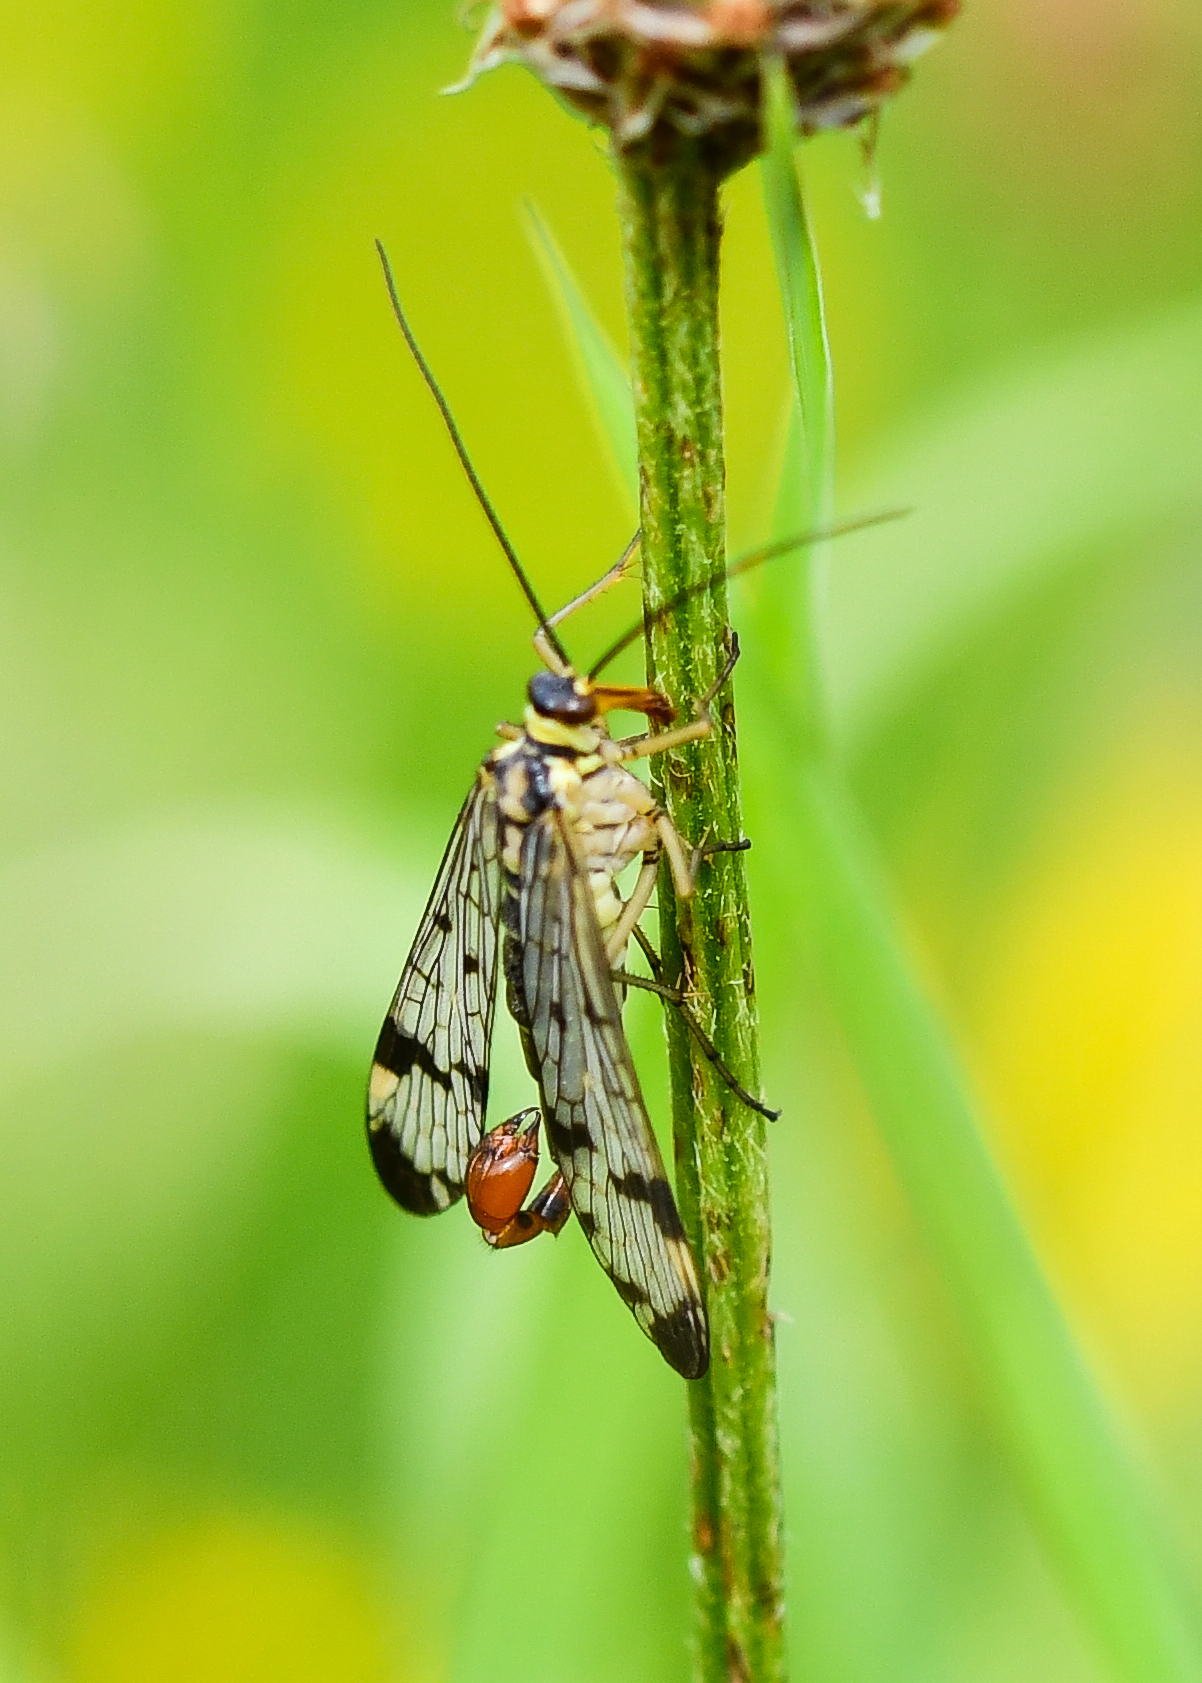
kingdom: Animalia
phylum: Arthropoda
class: Insecta
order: Mecoptera
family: Panorpidae
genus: Panorpa
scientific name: Panorpa communis
